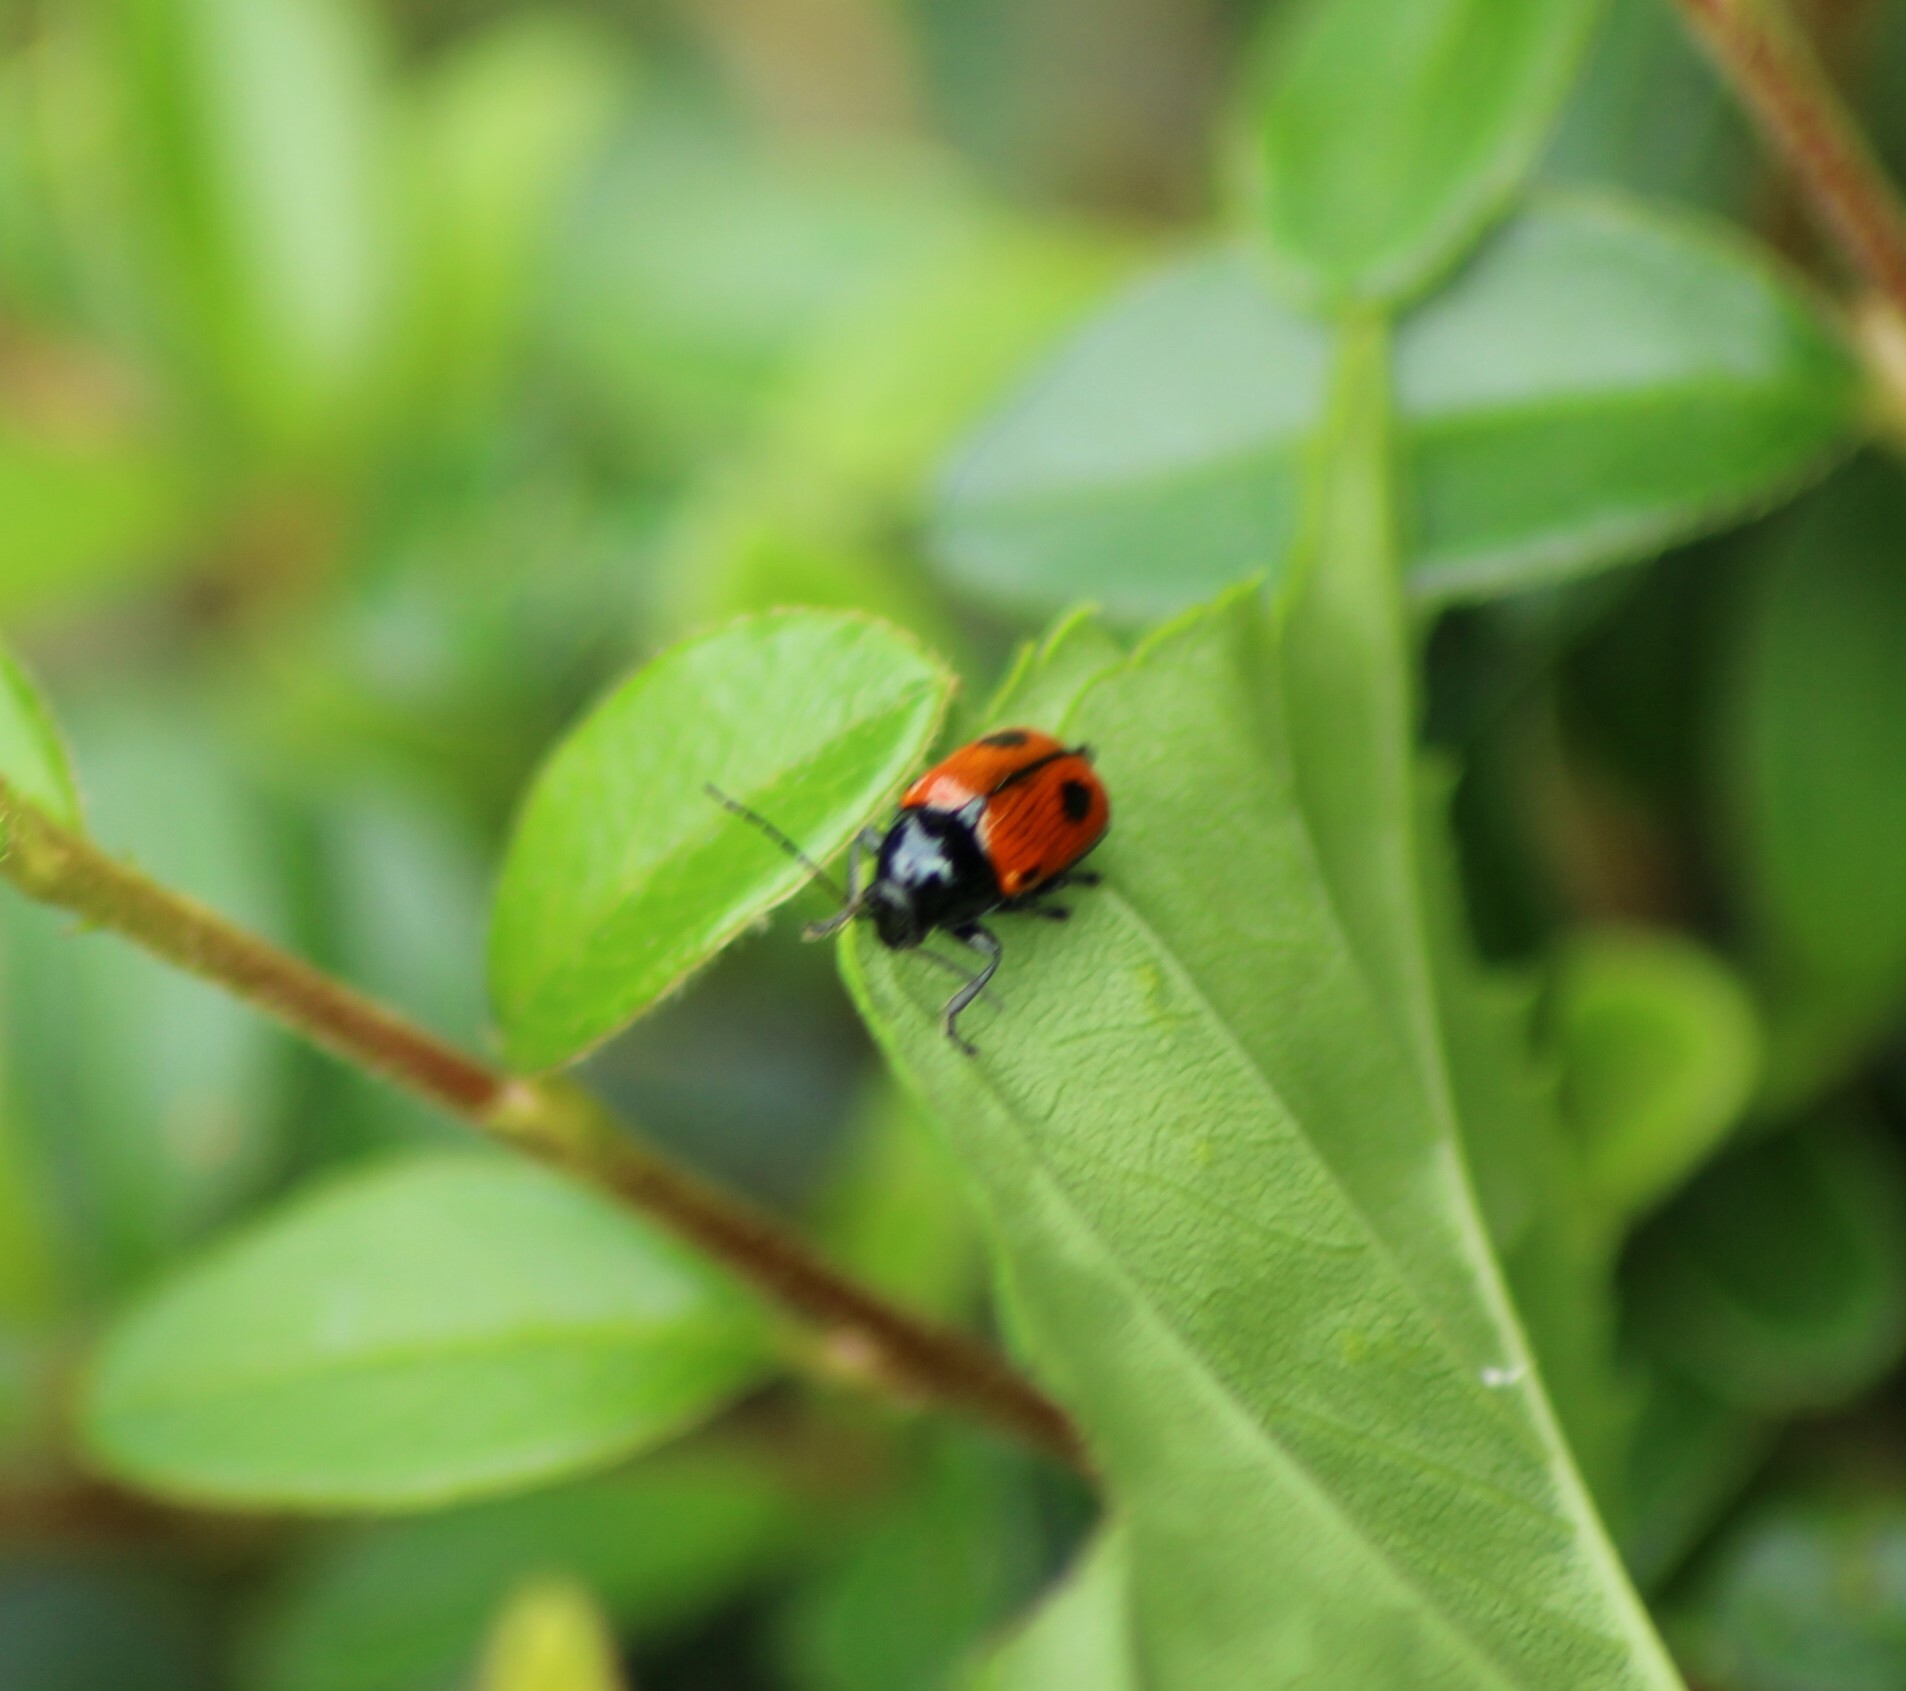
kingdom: Animalia
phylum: Arthropoda
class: Insecta
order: Coleoptera
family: Chrysomelidae
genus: Chiridopsis
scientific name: Chiridopsis bipunctata
